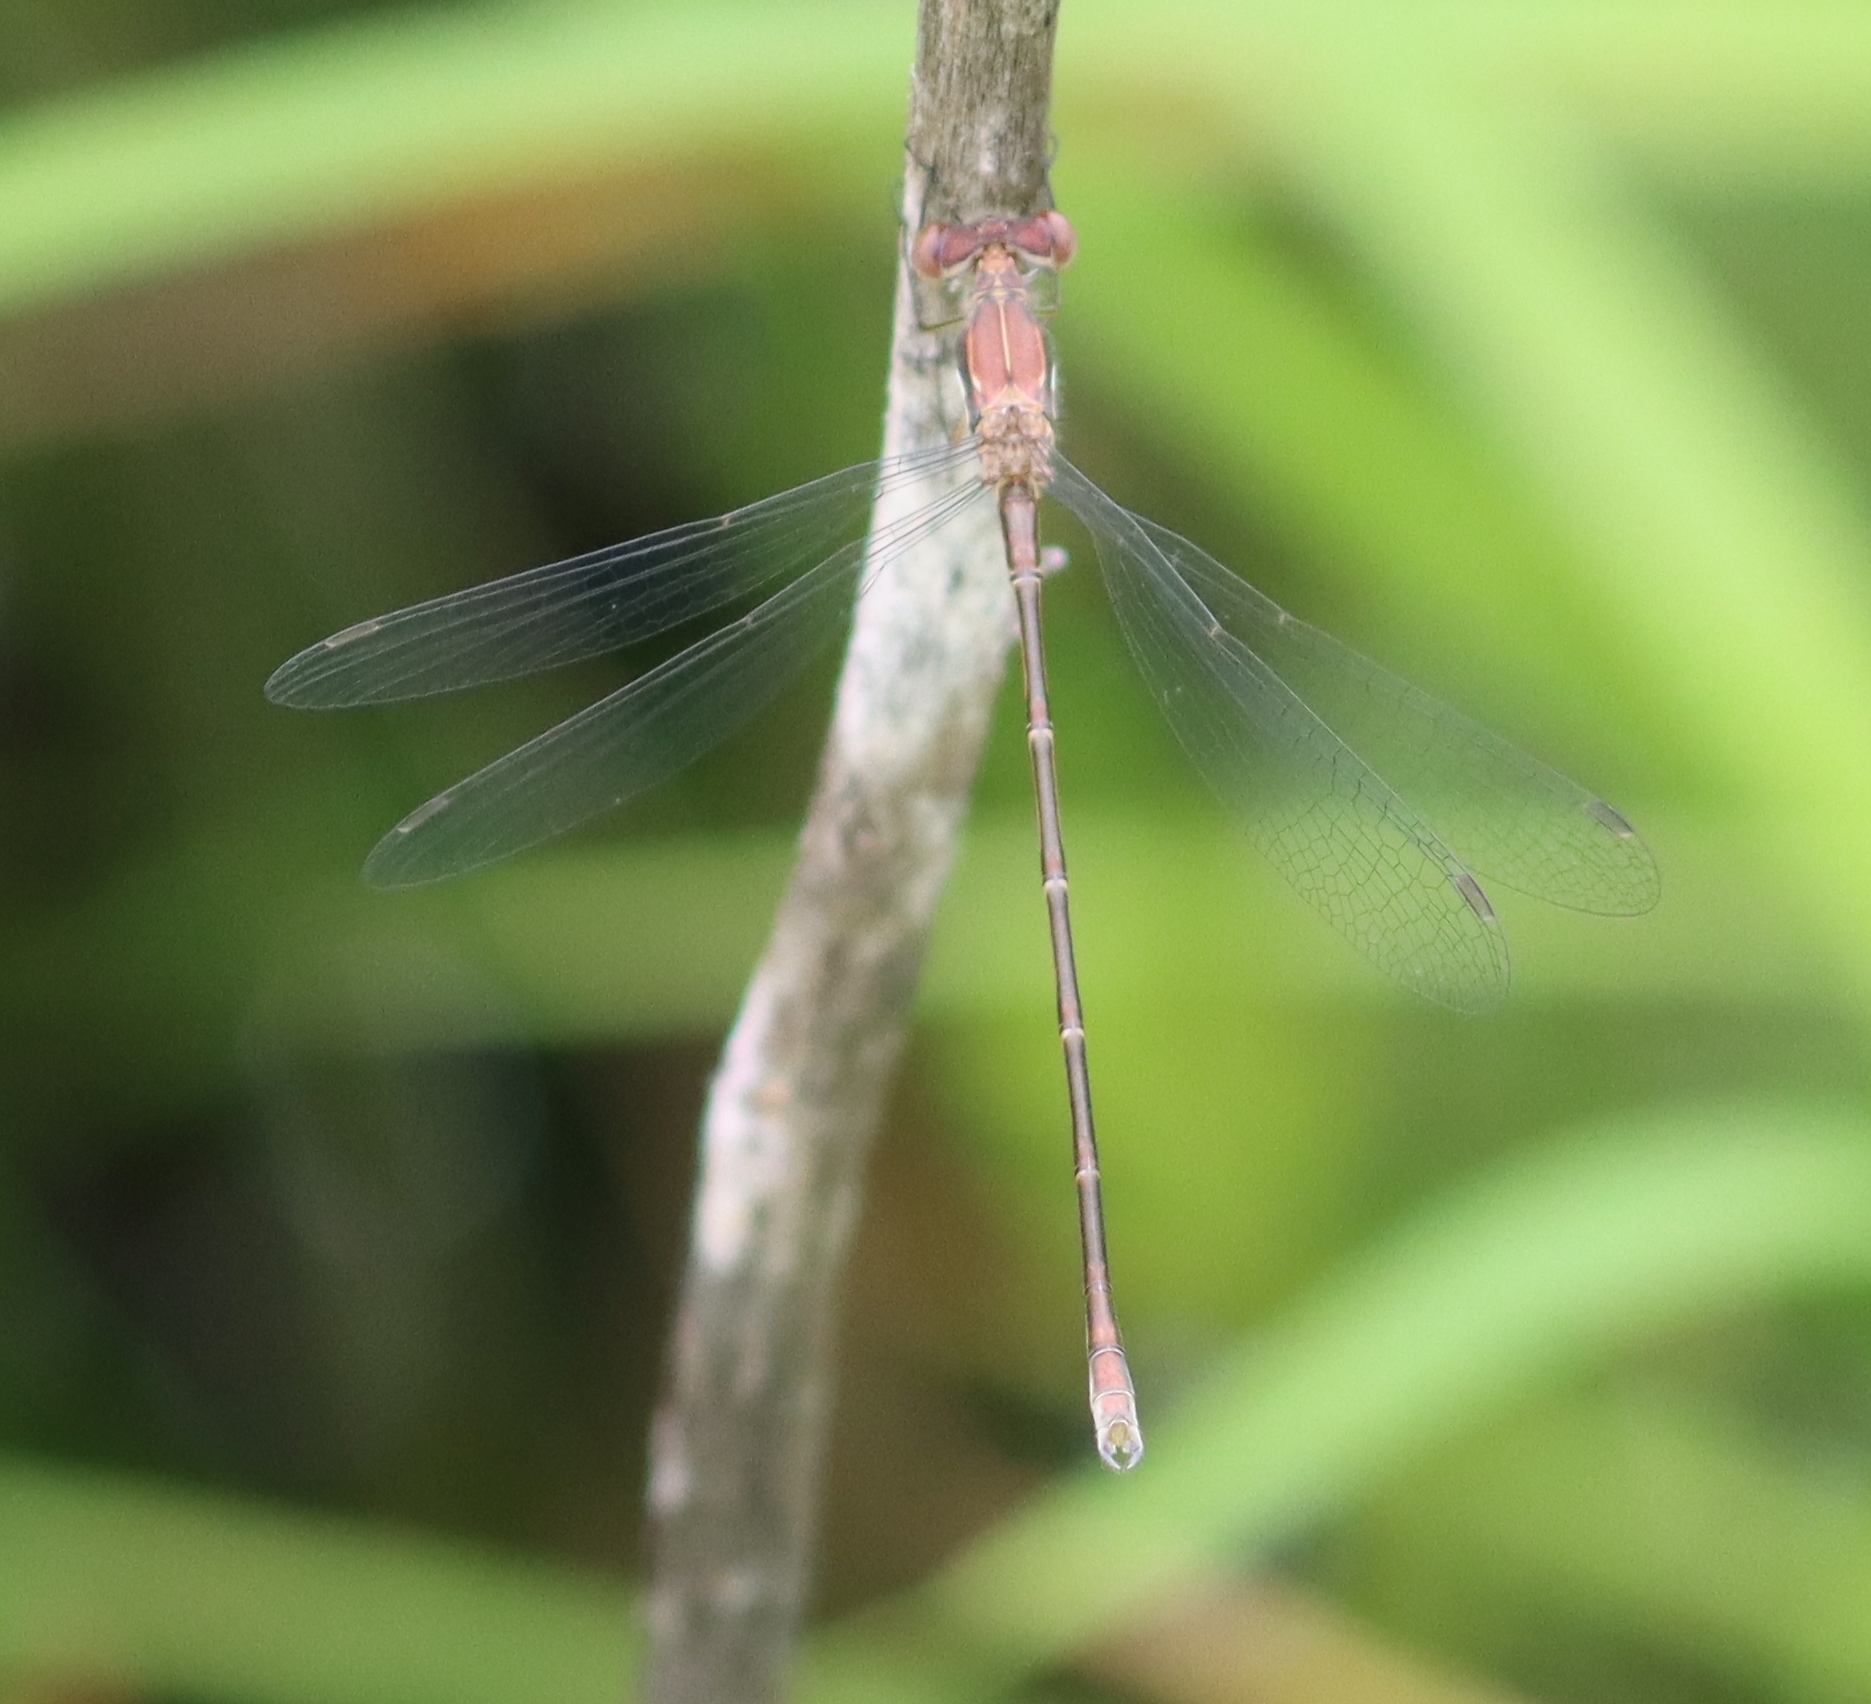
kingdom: Animalia
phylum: Arthropoda
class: Insecta
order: Odonata
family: Lestidae
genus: Lestes
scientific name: Lestes congener
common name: Spotted spreadwing
